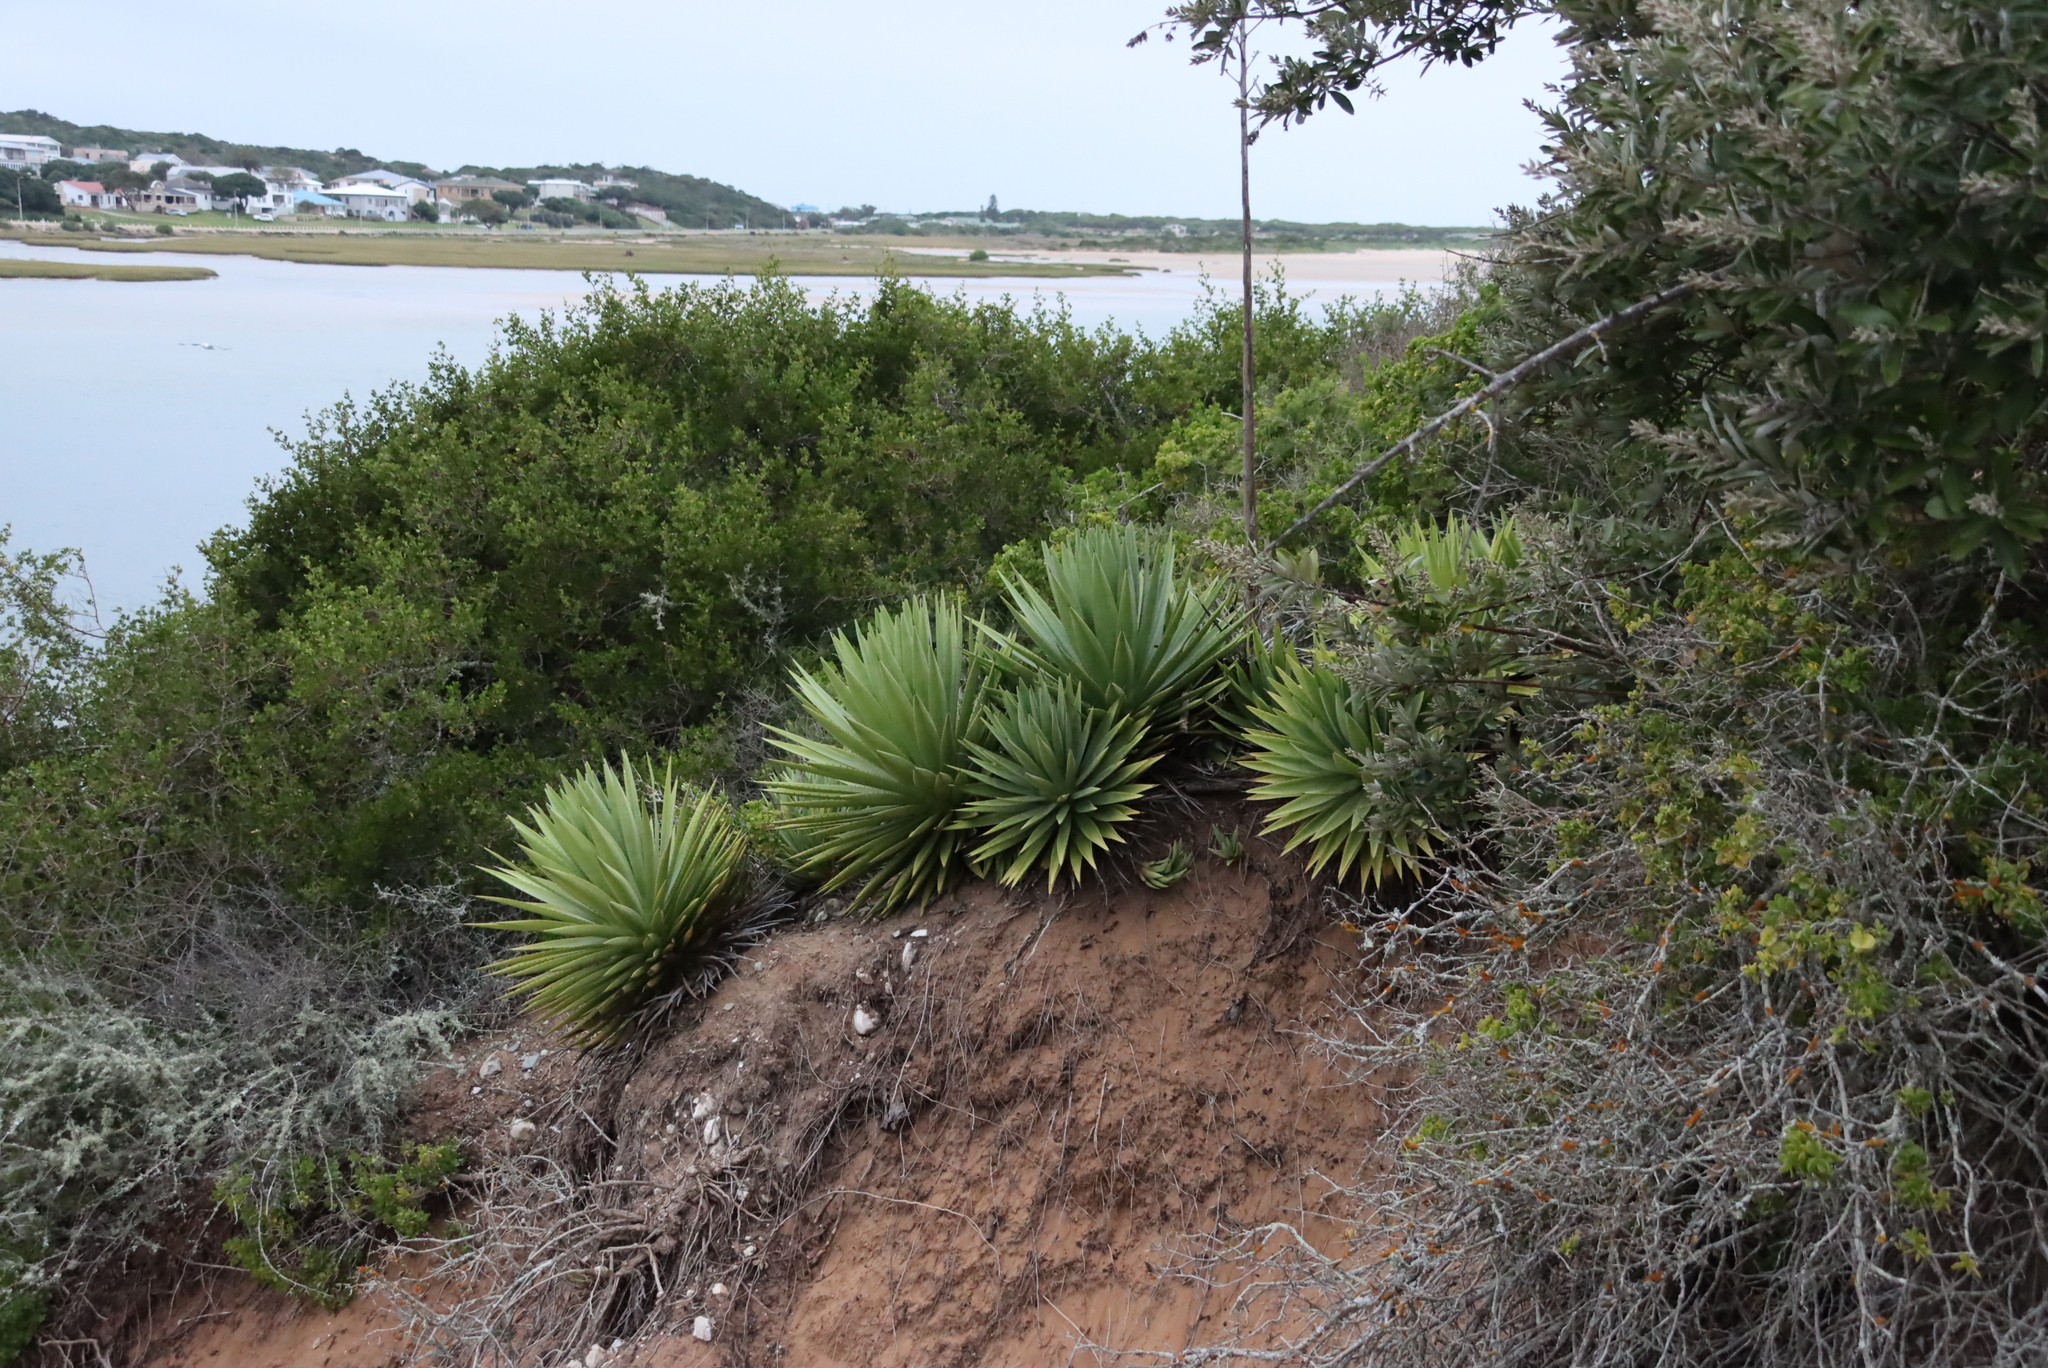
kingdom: Plantae
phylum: Tracheophyta
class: Liliopsida
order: Asparagales
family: Asparagaceae
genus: Agave
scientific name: Agave angustifolia
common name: Mescal agave
